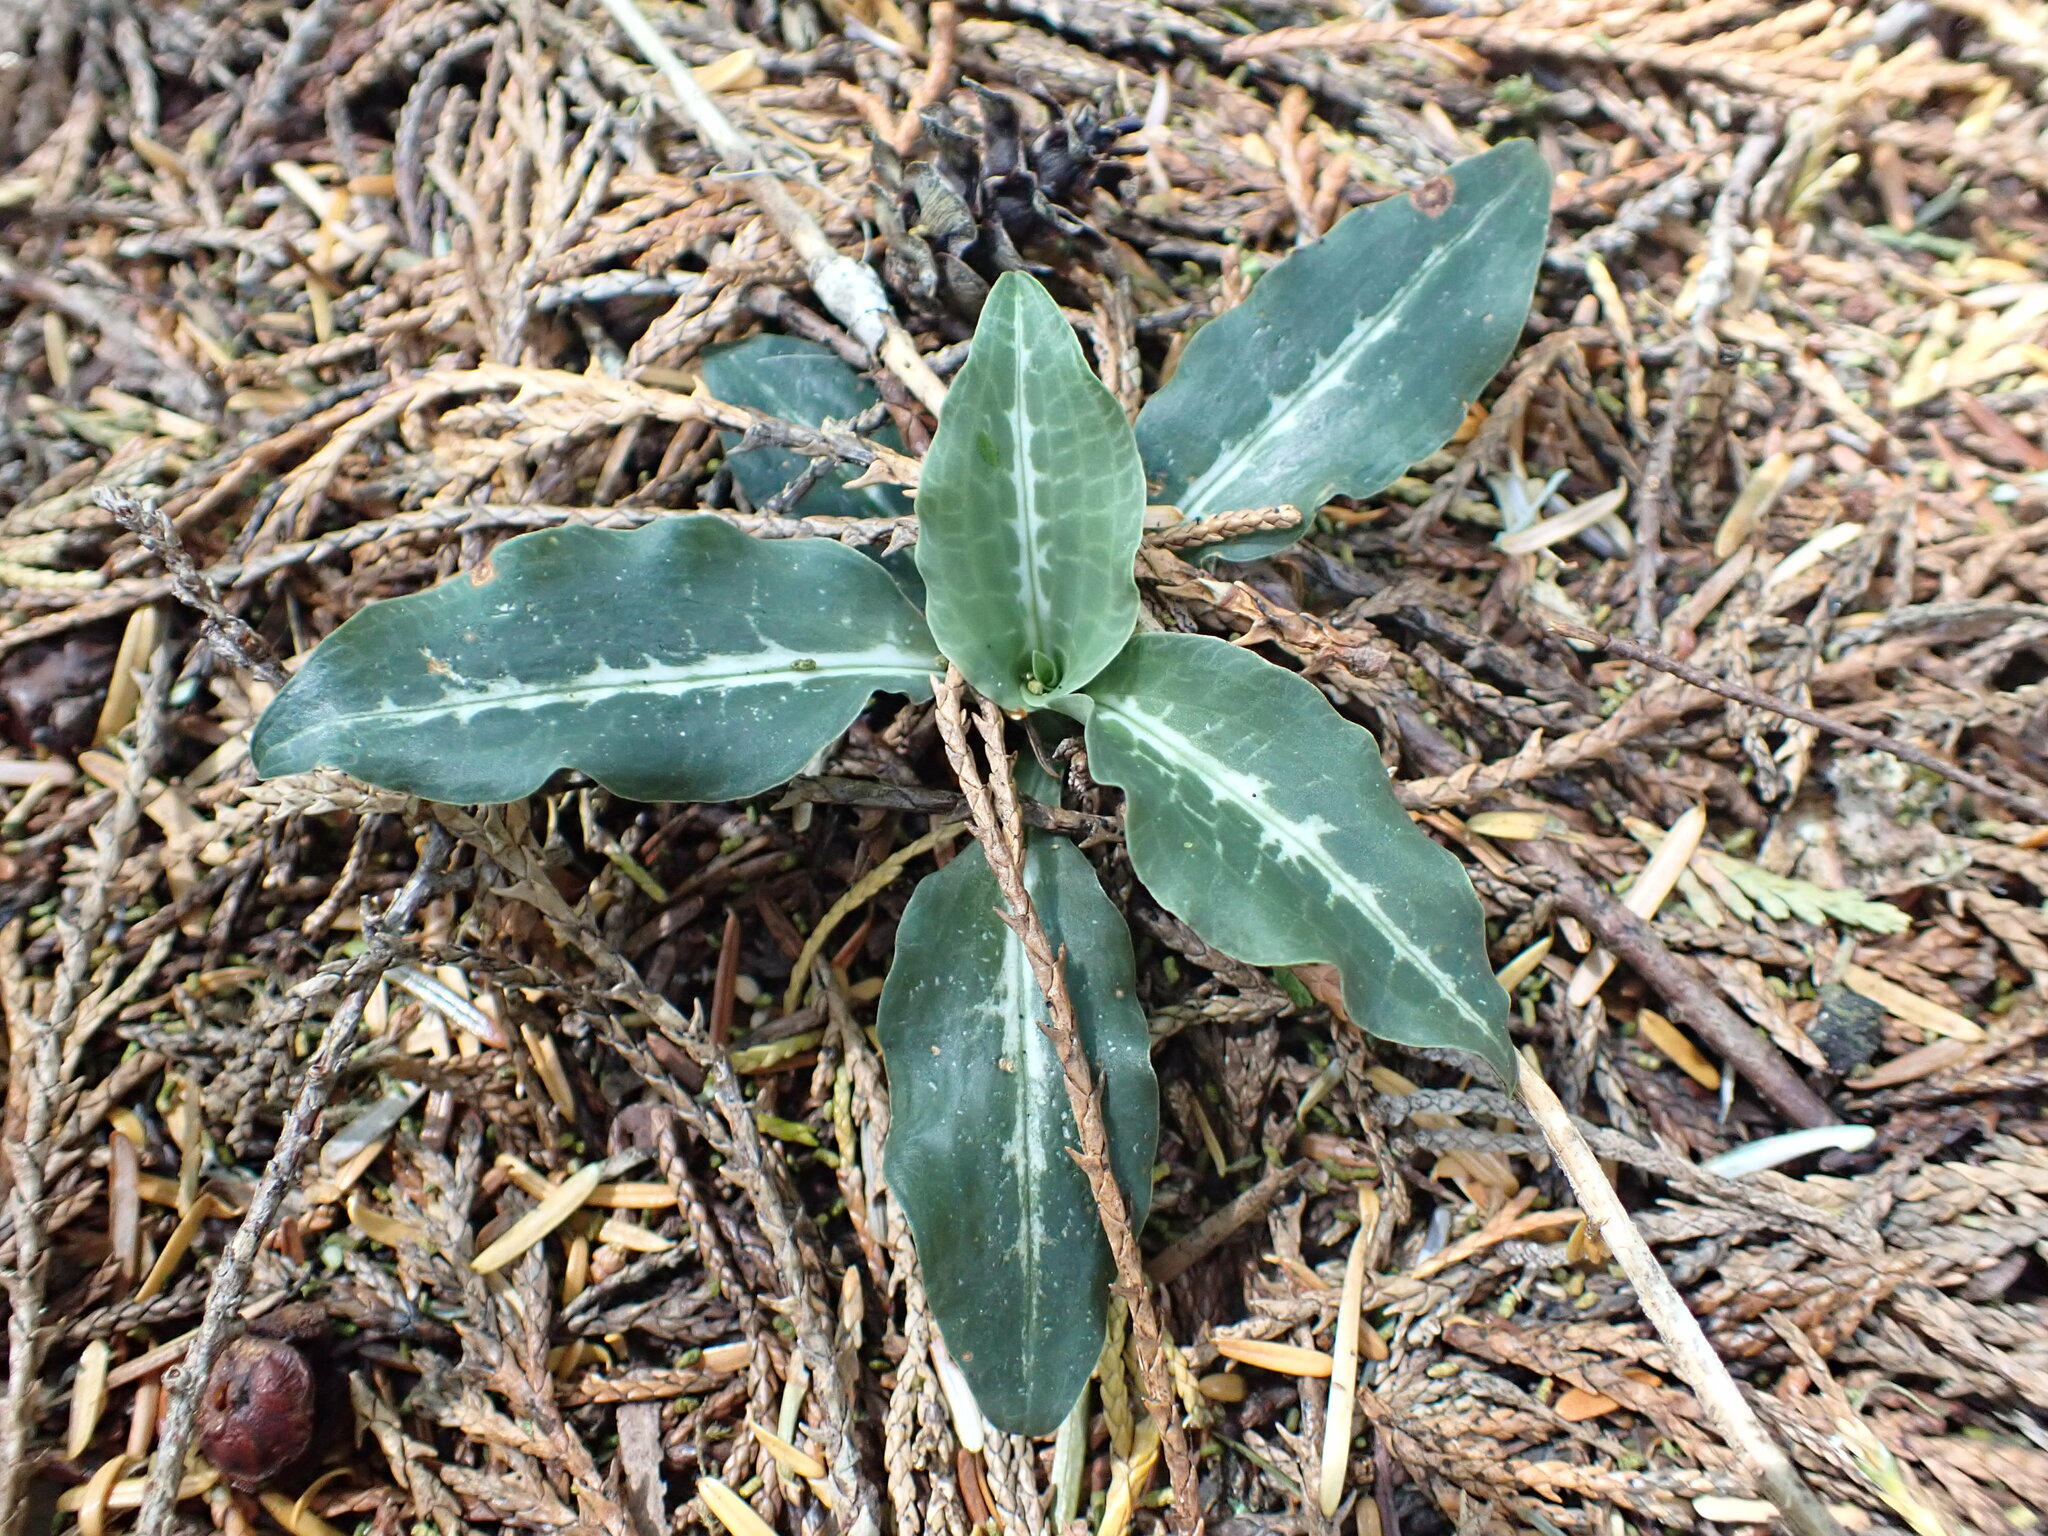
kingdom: Plantae
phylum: Tracheophyta
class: Liliopsida
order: Asparagales
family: Orchidaceae
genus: Goodyera
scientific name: Goodyera oblongifolia
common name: Giant rattlesnake-plantain
